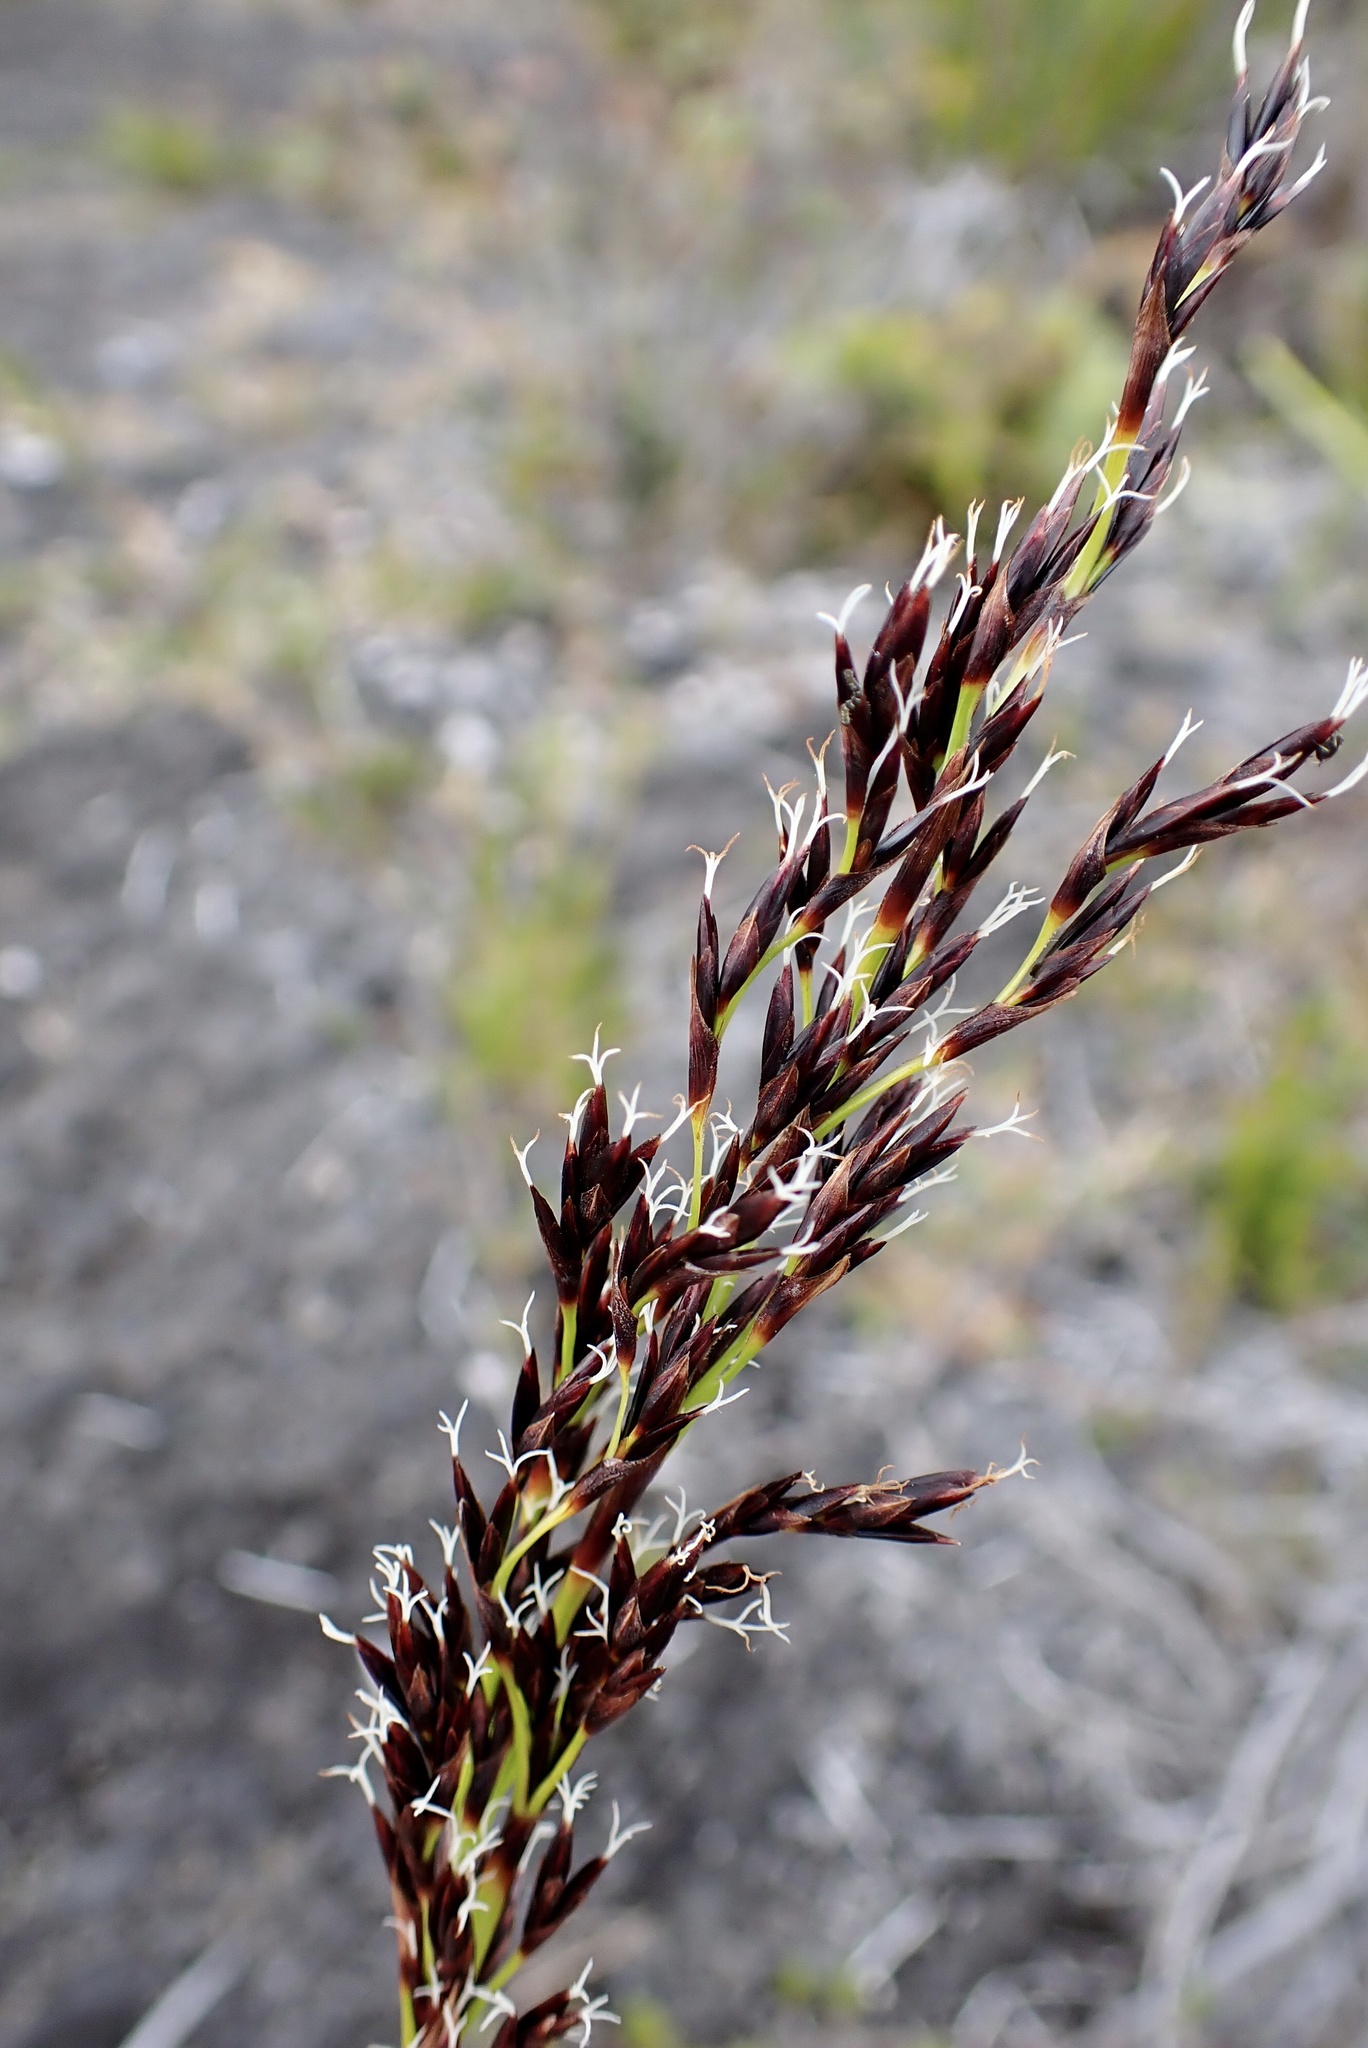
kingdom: Plantae
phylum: Tracheophyta
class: Liliopsida
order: Poales
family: Cyperaceae
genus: Machaerina
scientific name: Machaerina angustifolia
